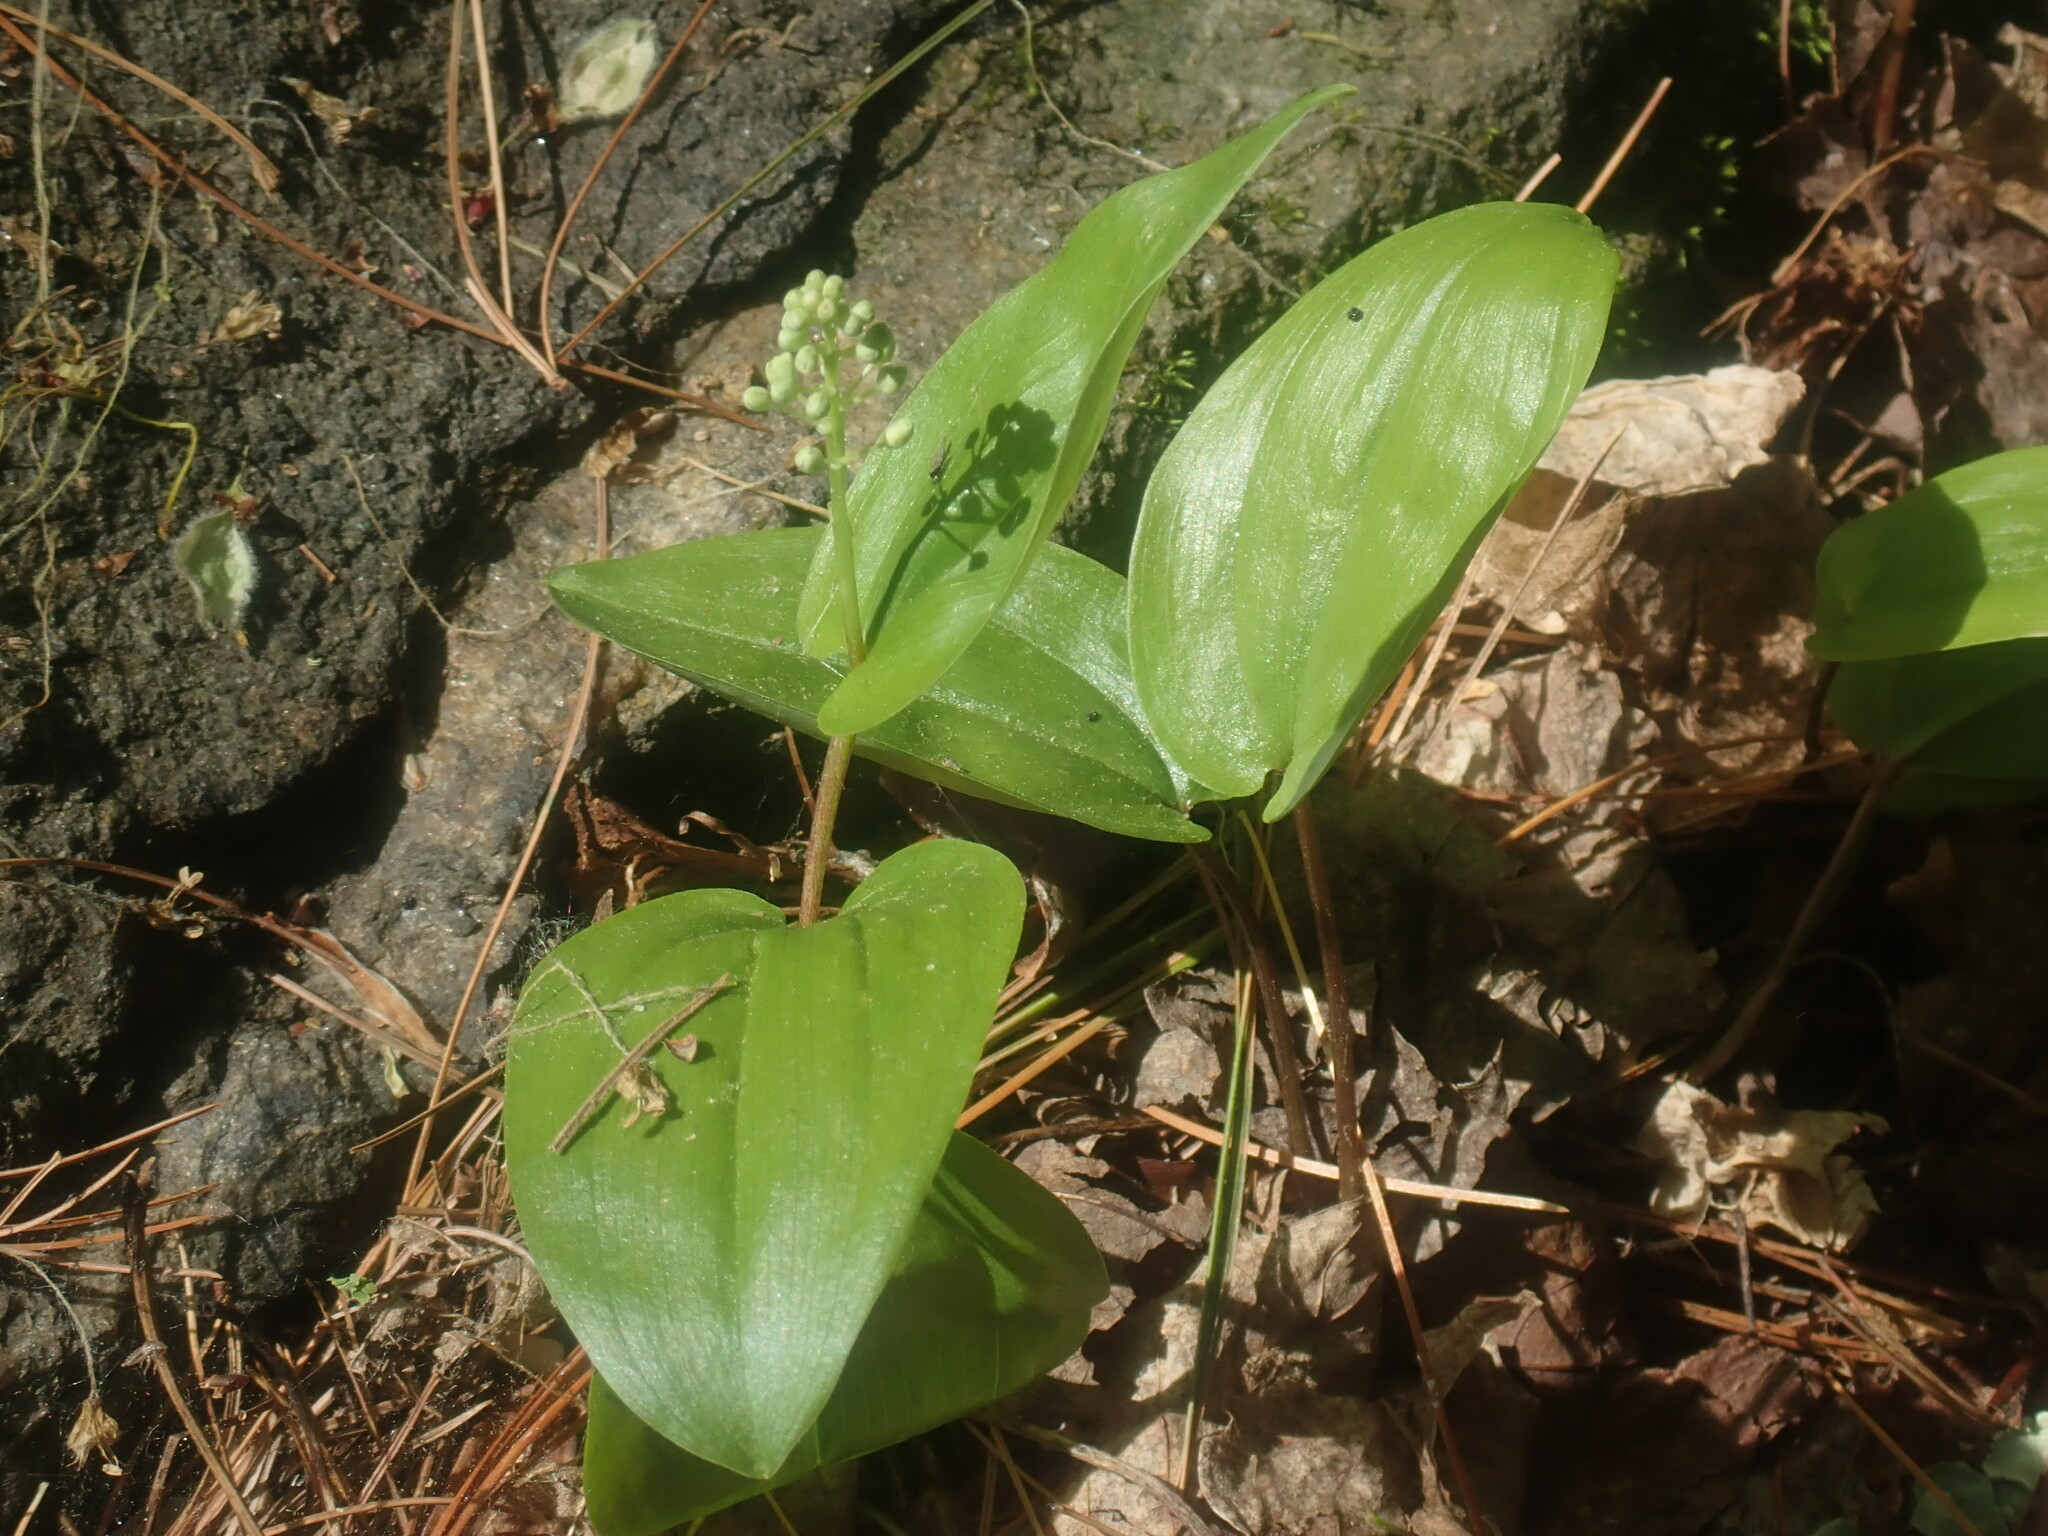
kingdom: Plantae
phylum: Tracheophyta
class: Liliopsida
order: Asparagales
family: Asparagaceae
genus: Maianthemum
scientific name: Maianthemum canadense
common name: False lily-of-the-valley
